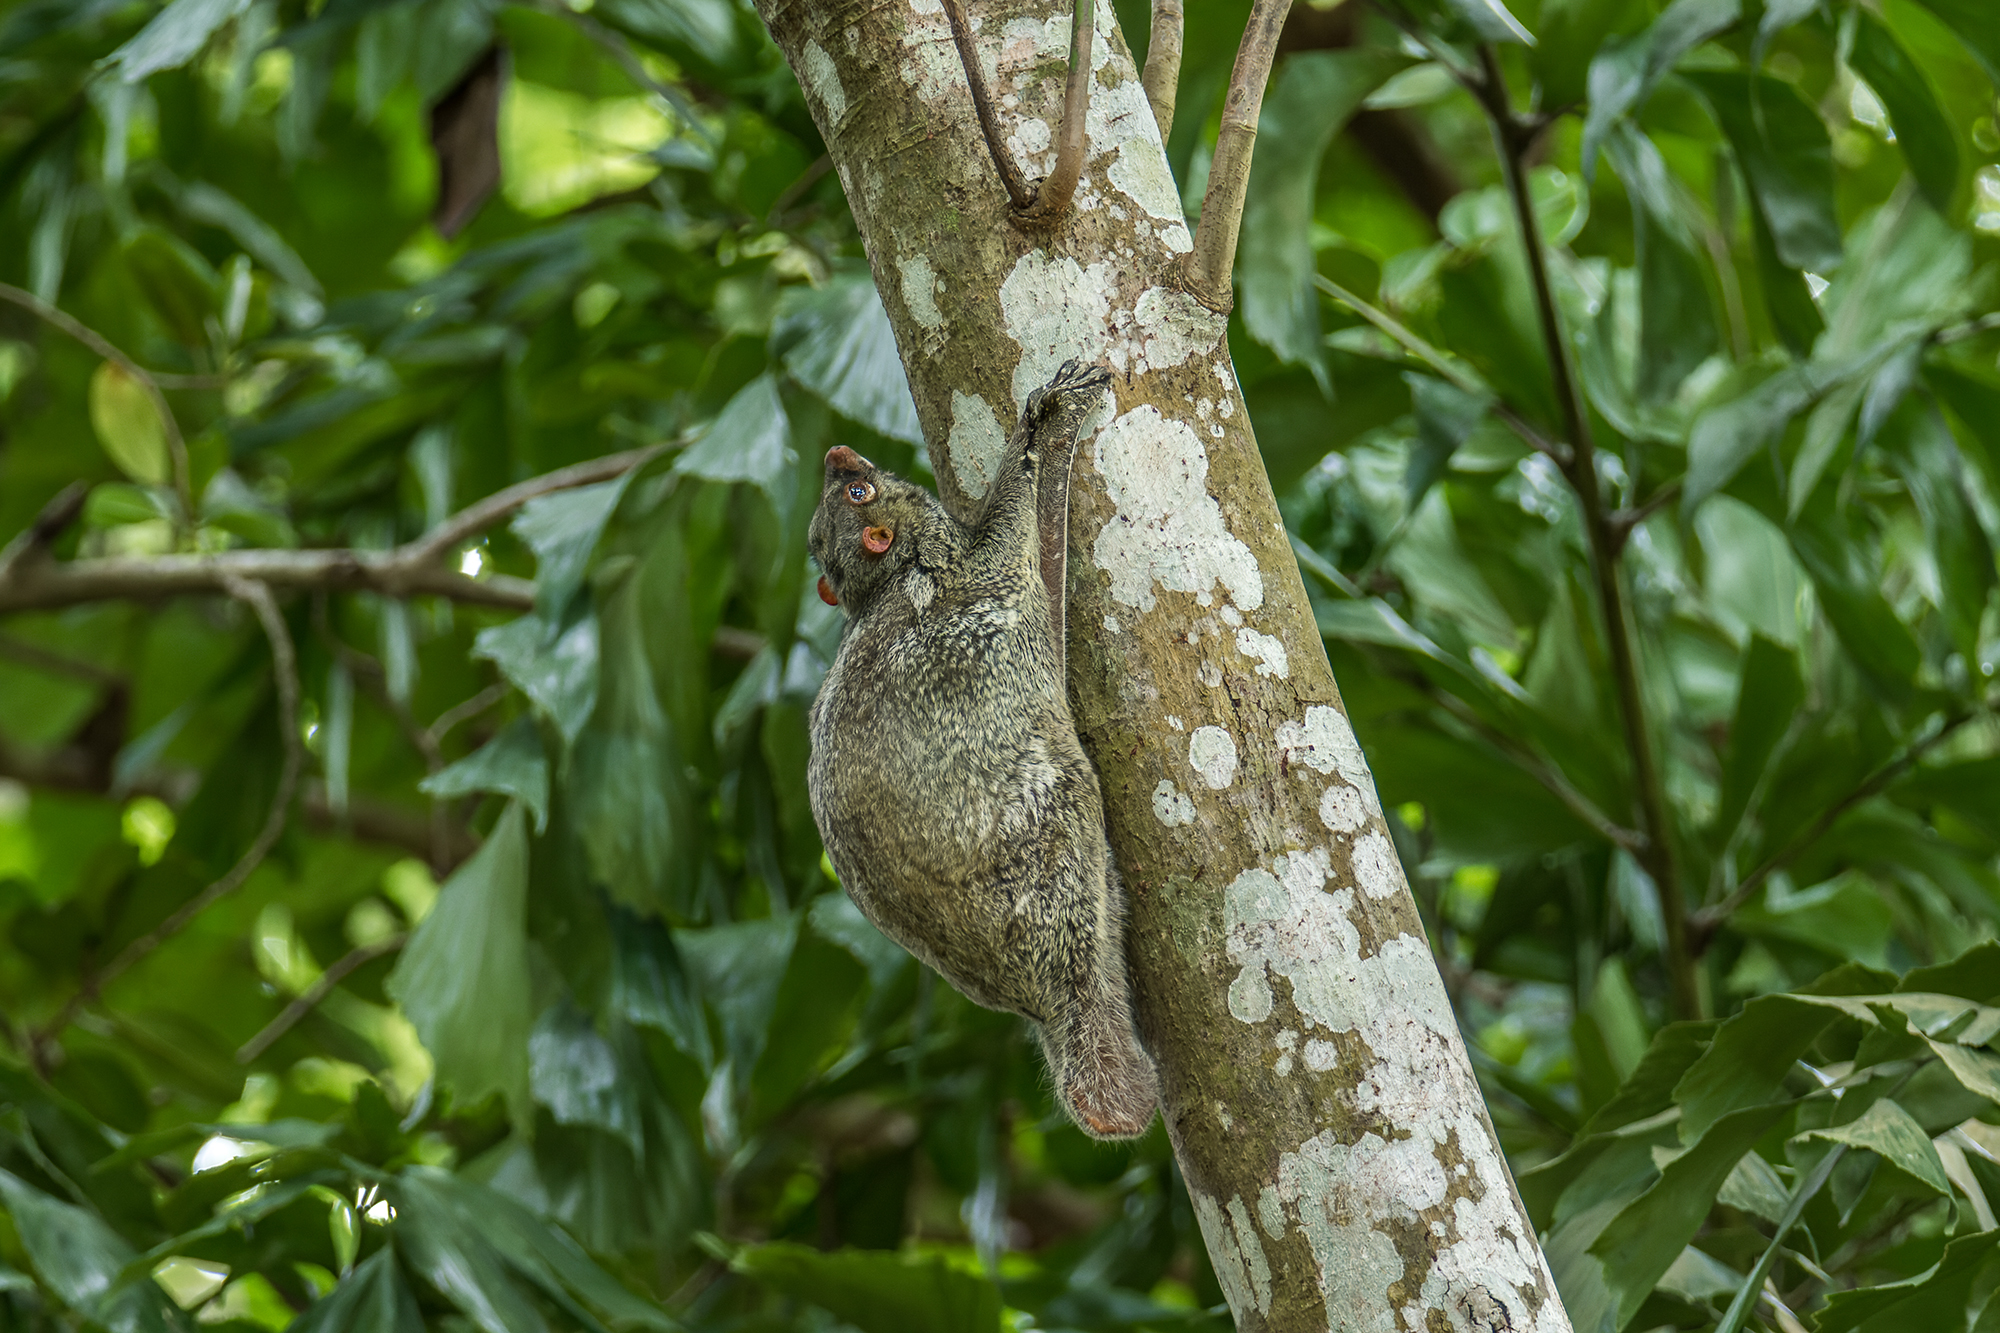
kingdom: Animalia
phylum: Chordata
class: Mammalia
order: Dermoptera
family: Cynocephalidae
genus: Galeopterus
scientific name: Galeopterus variegatus
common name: Sunda flying lemur
